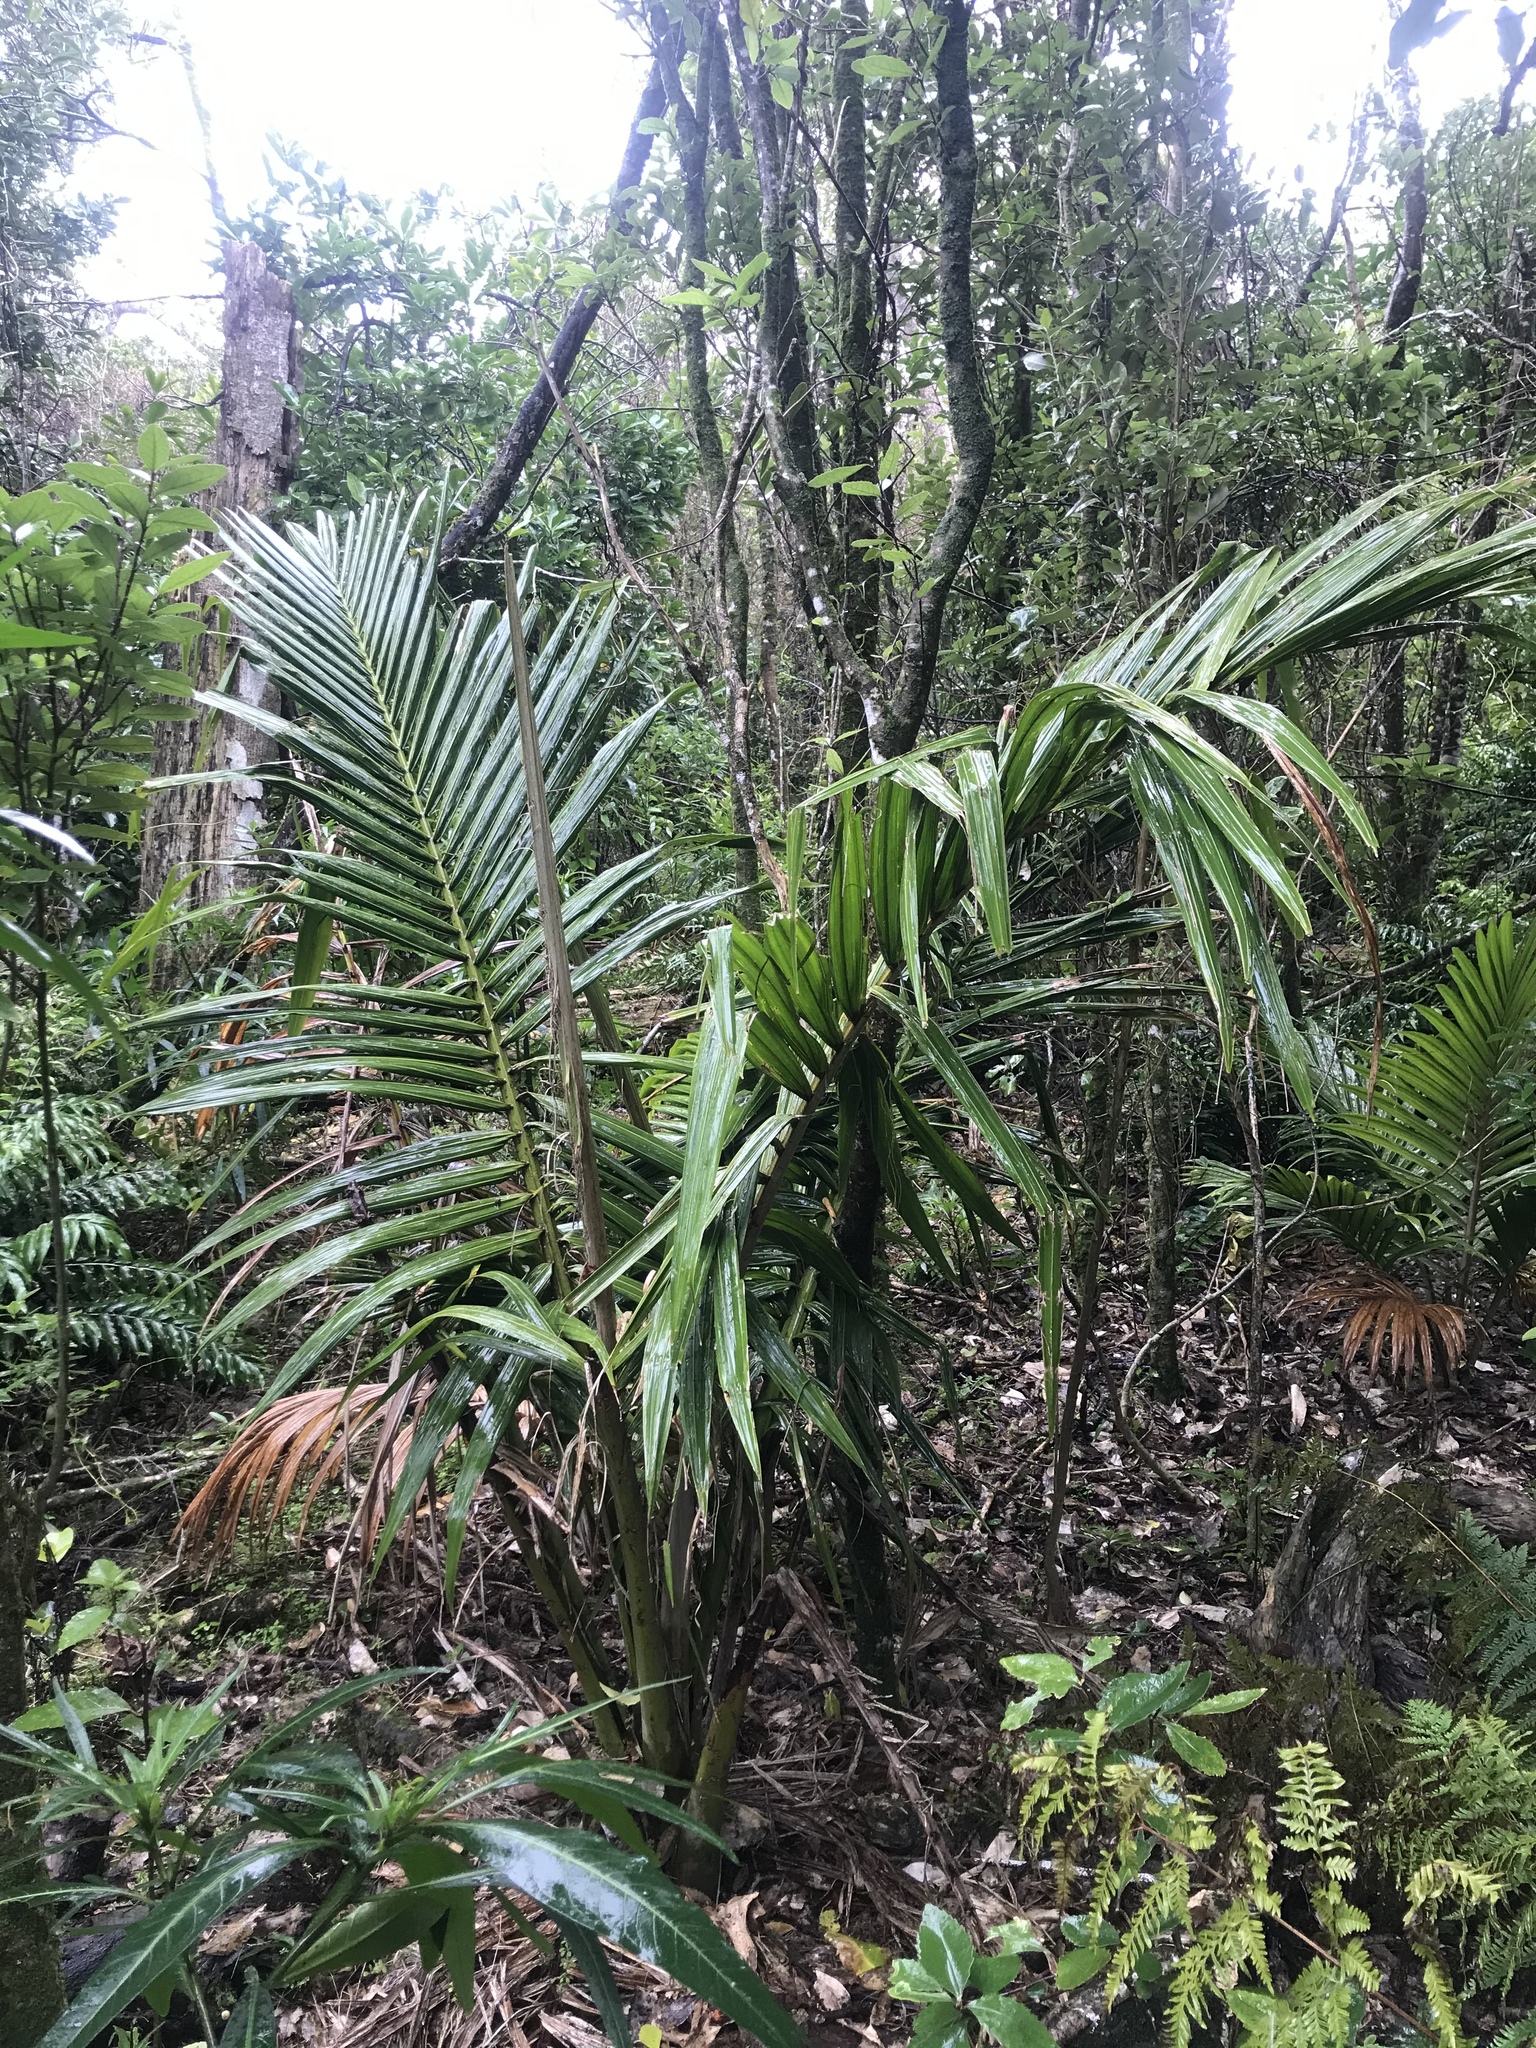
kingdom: Plantae
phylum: Tracheophyta
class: Liliopsida
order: Arecales
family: Arecaceae
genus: Rhopalostylis
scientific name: Rhopalostylis sapida
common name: Feather-duster palm
